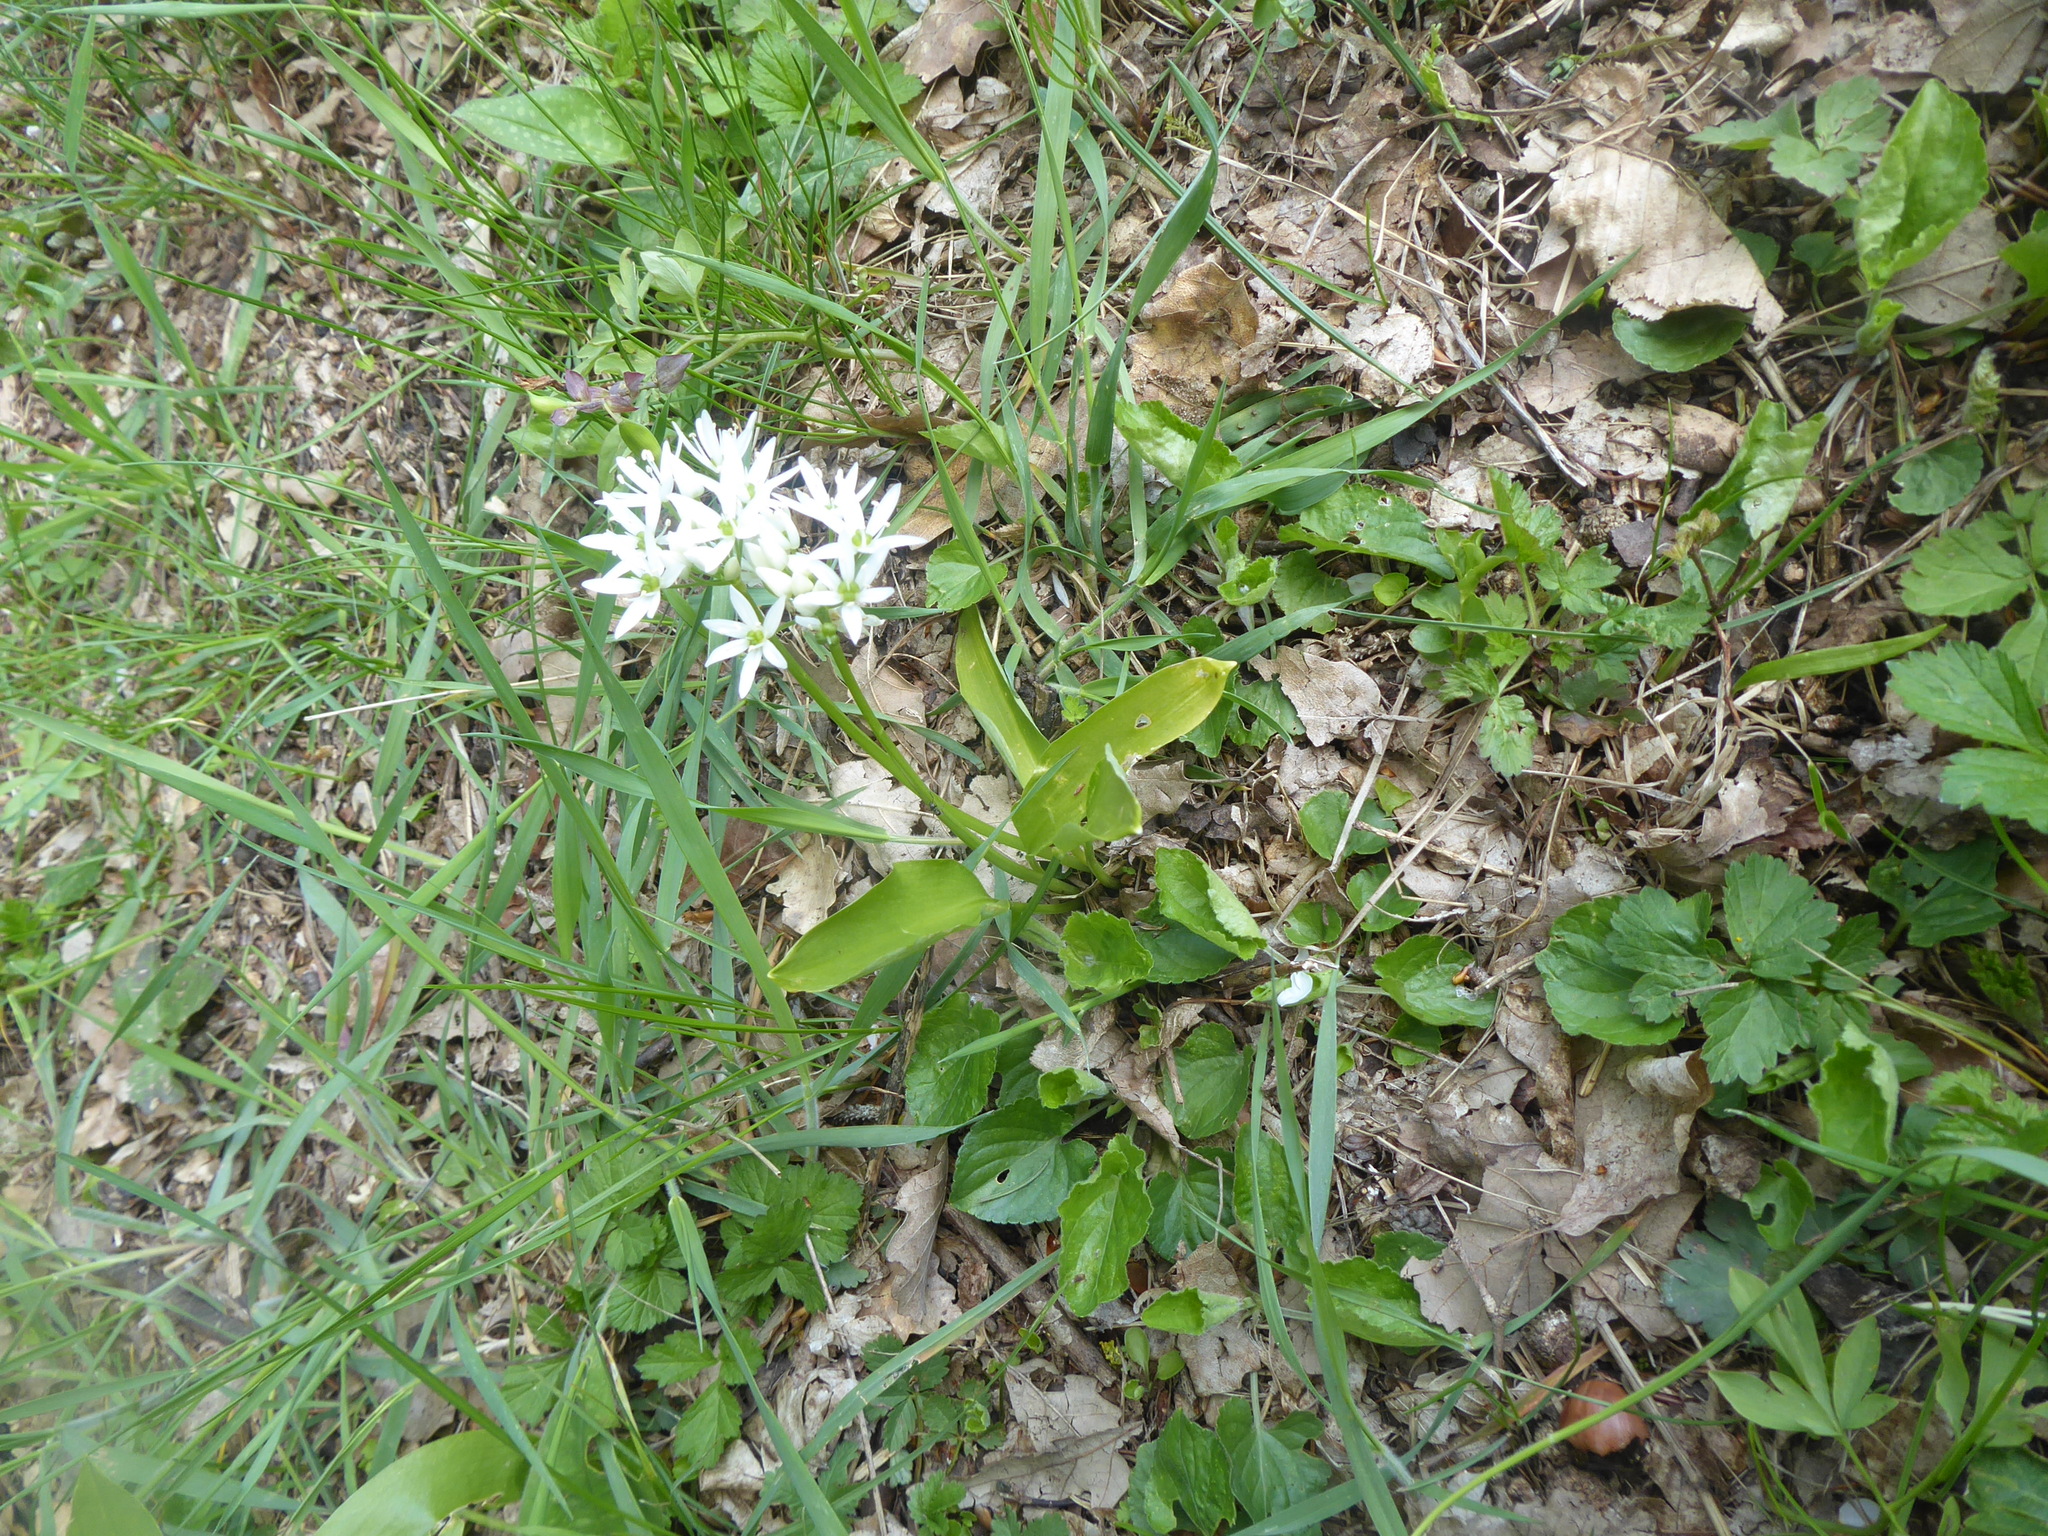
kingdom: Plantae
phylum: Tracheophyta
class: Liliopsida
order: Asparagales
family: Amaryllidaceae
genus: Allium
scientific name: Allium ursinum
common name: Ramsons
